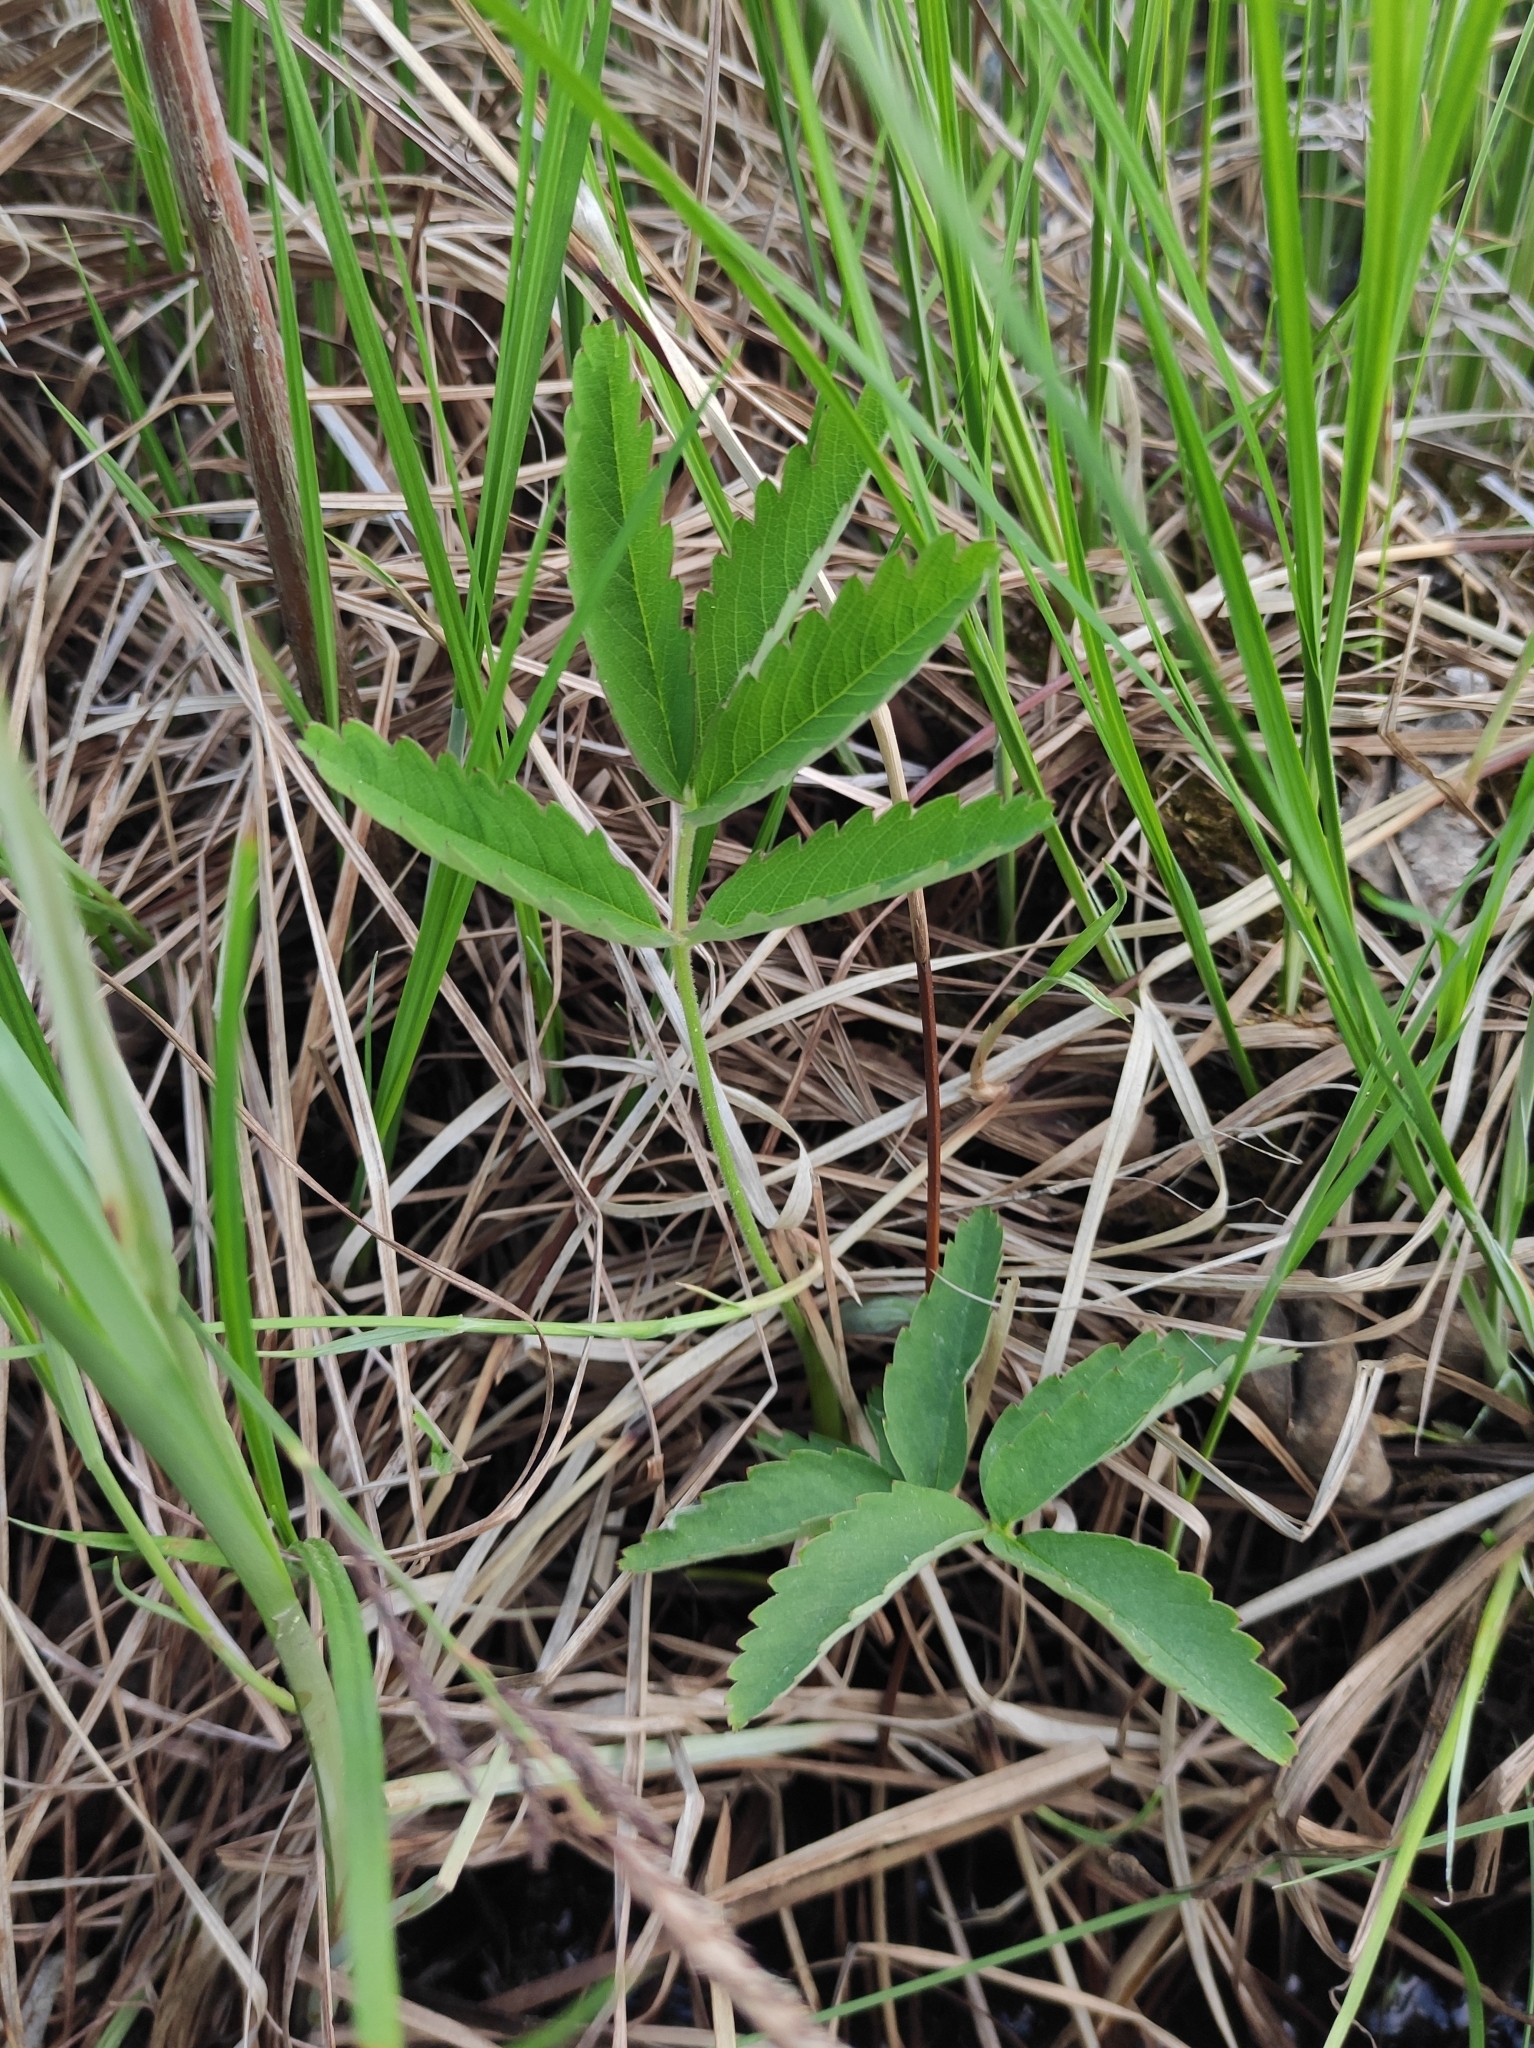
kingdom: Plantae
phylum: Tracheophyta
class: Magnoliopsida
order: Rosales
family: Rosaceae
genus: Comarum
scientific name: Comarum palustre
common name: Marsh cinquefoil
